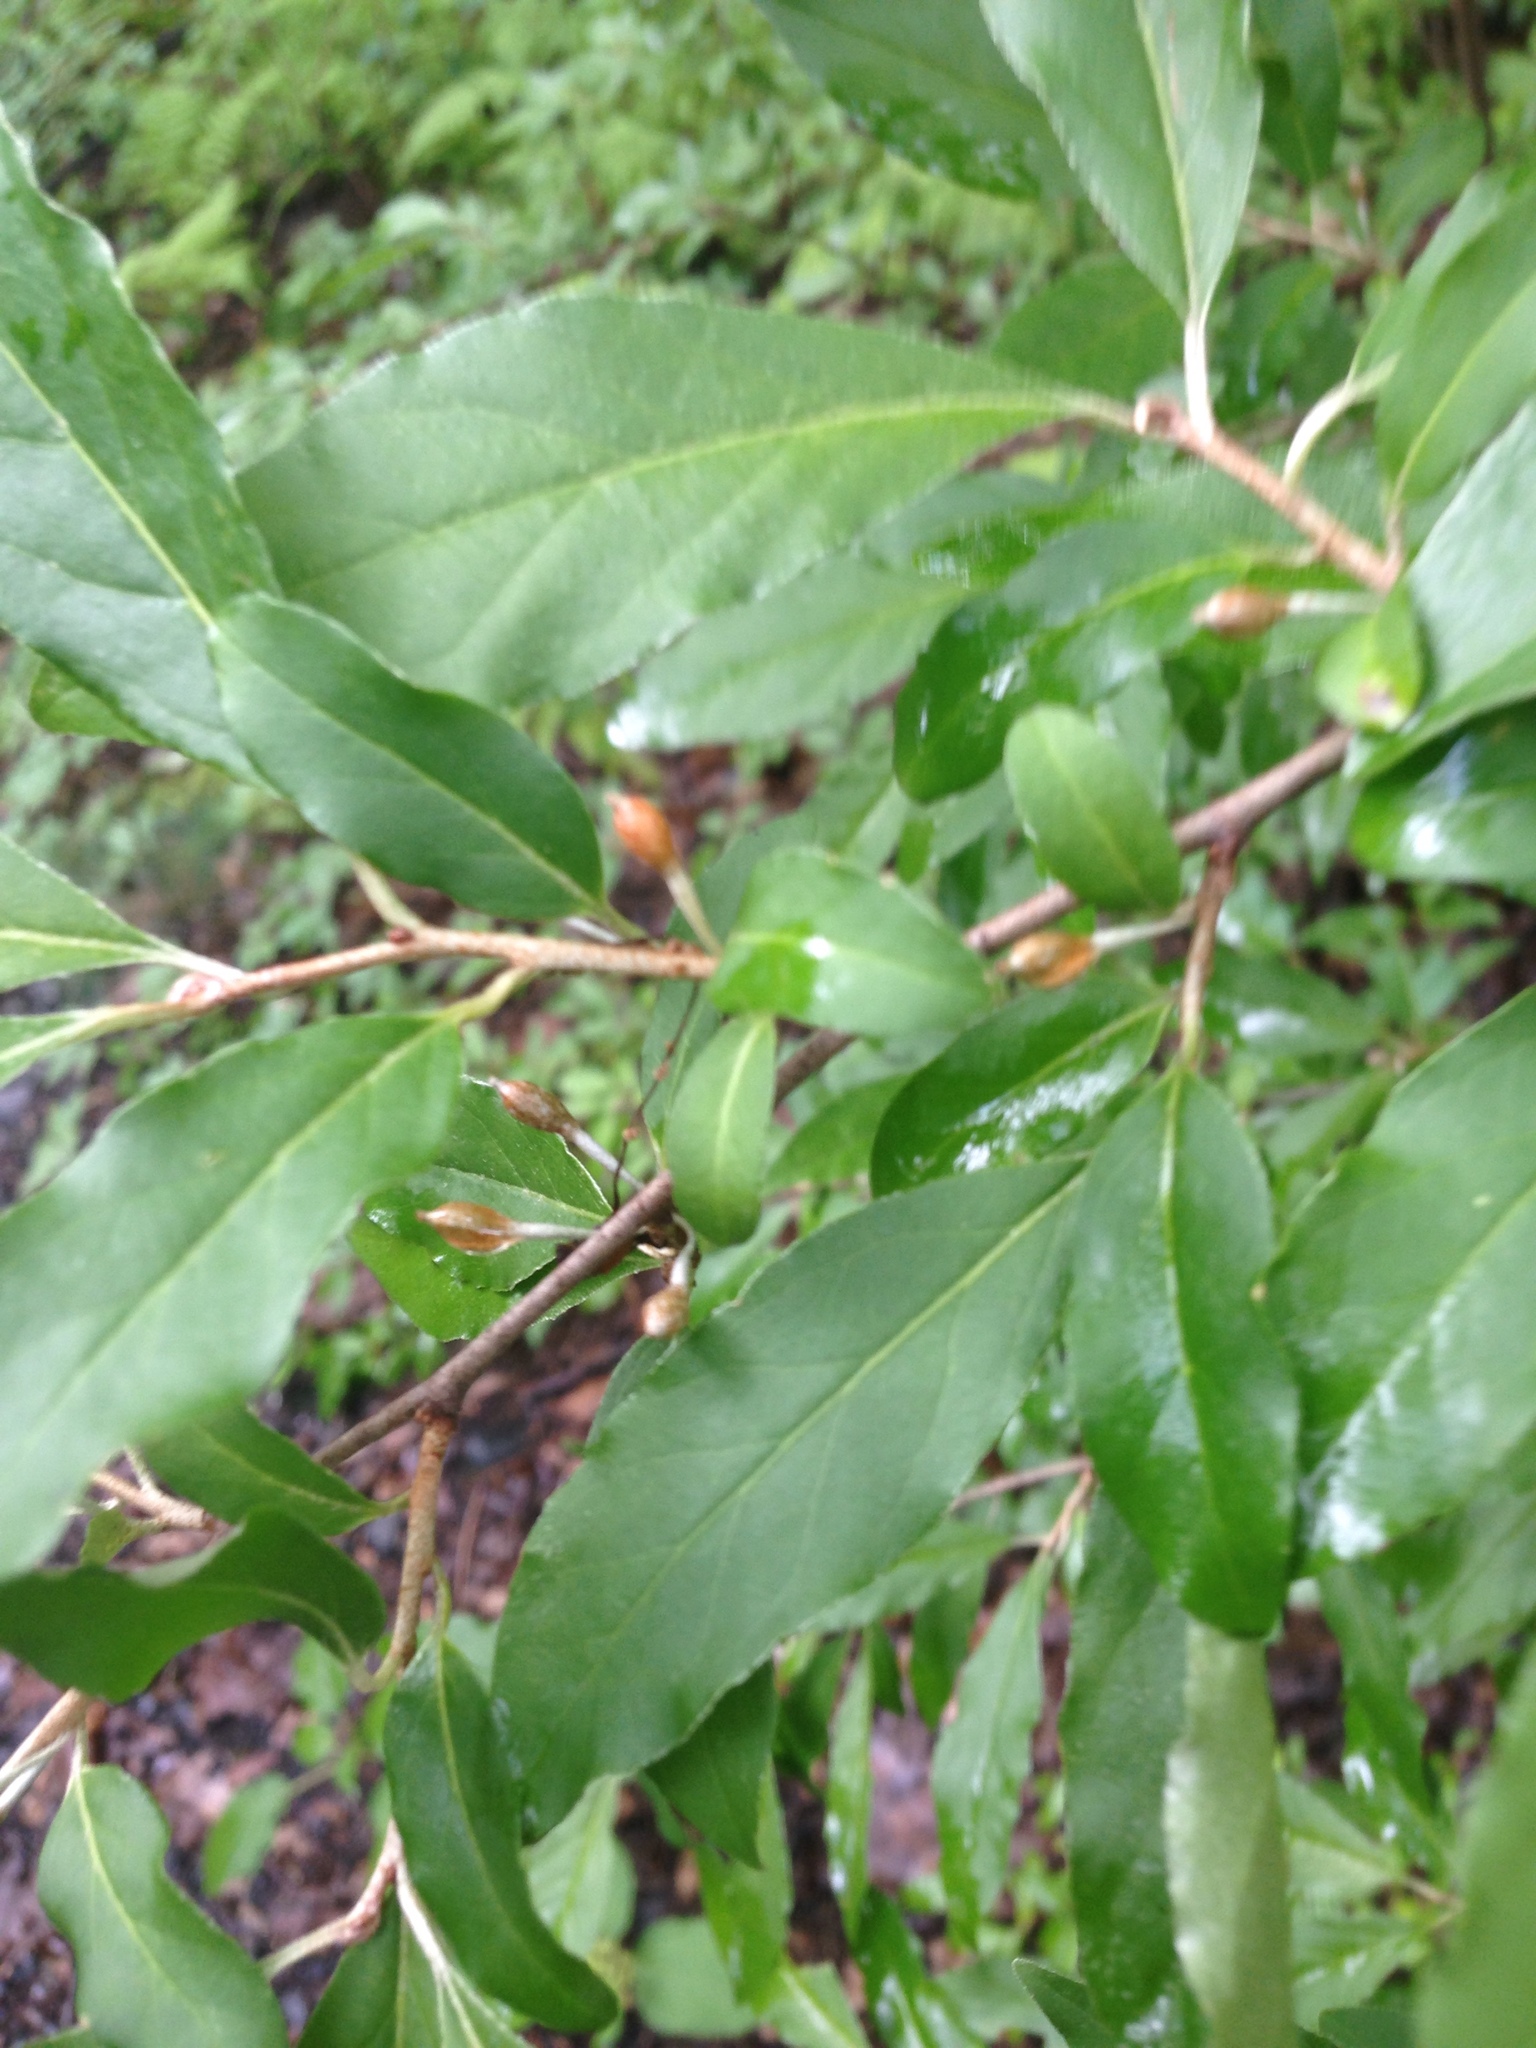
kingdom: Plantae
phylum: Tracheophyta
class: Magnoliopsida
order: Rosales
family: Elaeagnaceae
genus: Elaeagnus
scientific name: Elaeagnus umbellata
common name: Autumn olive
